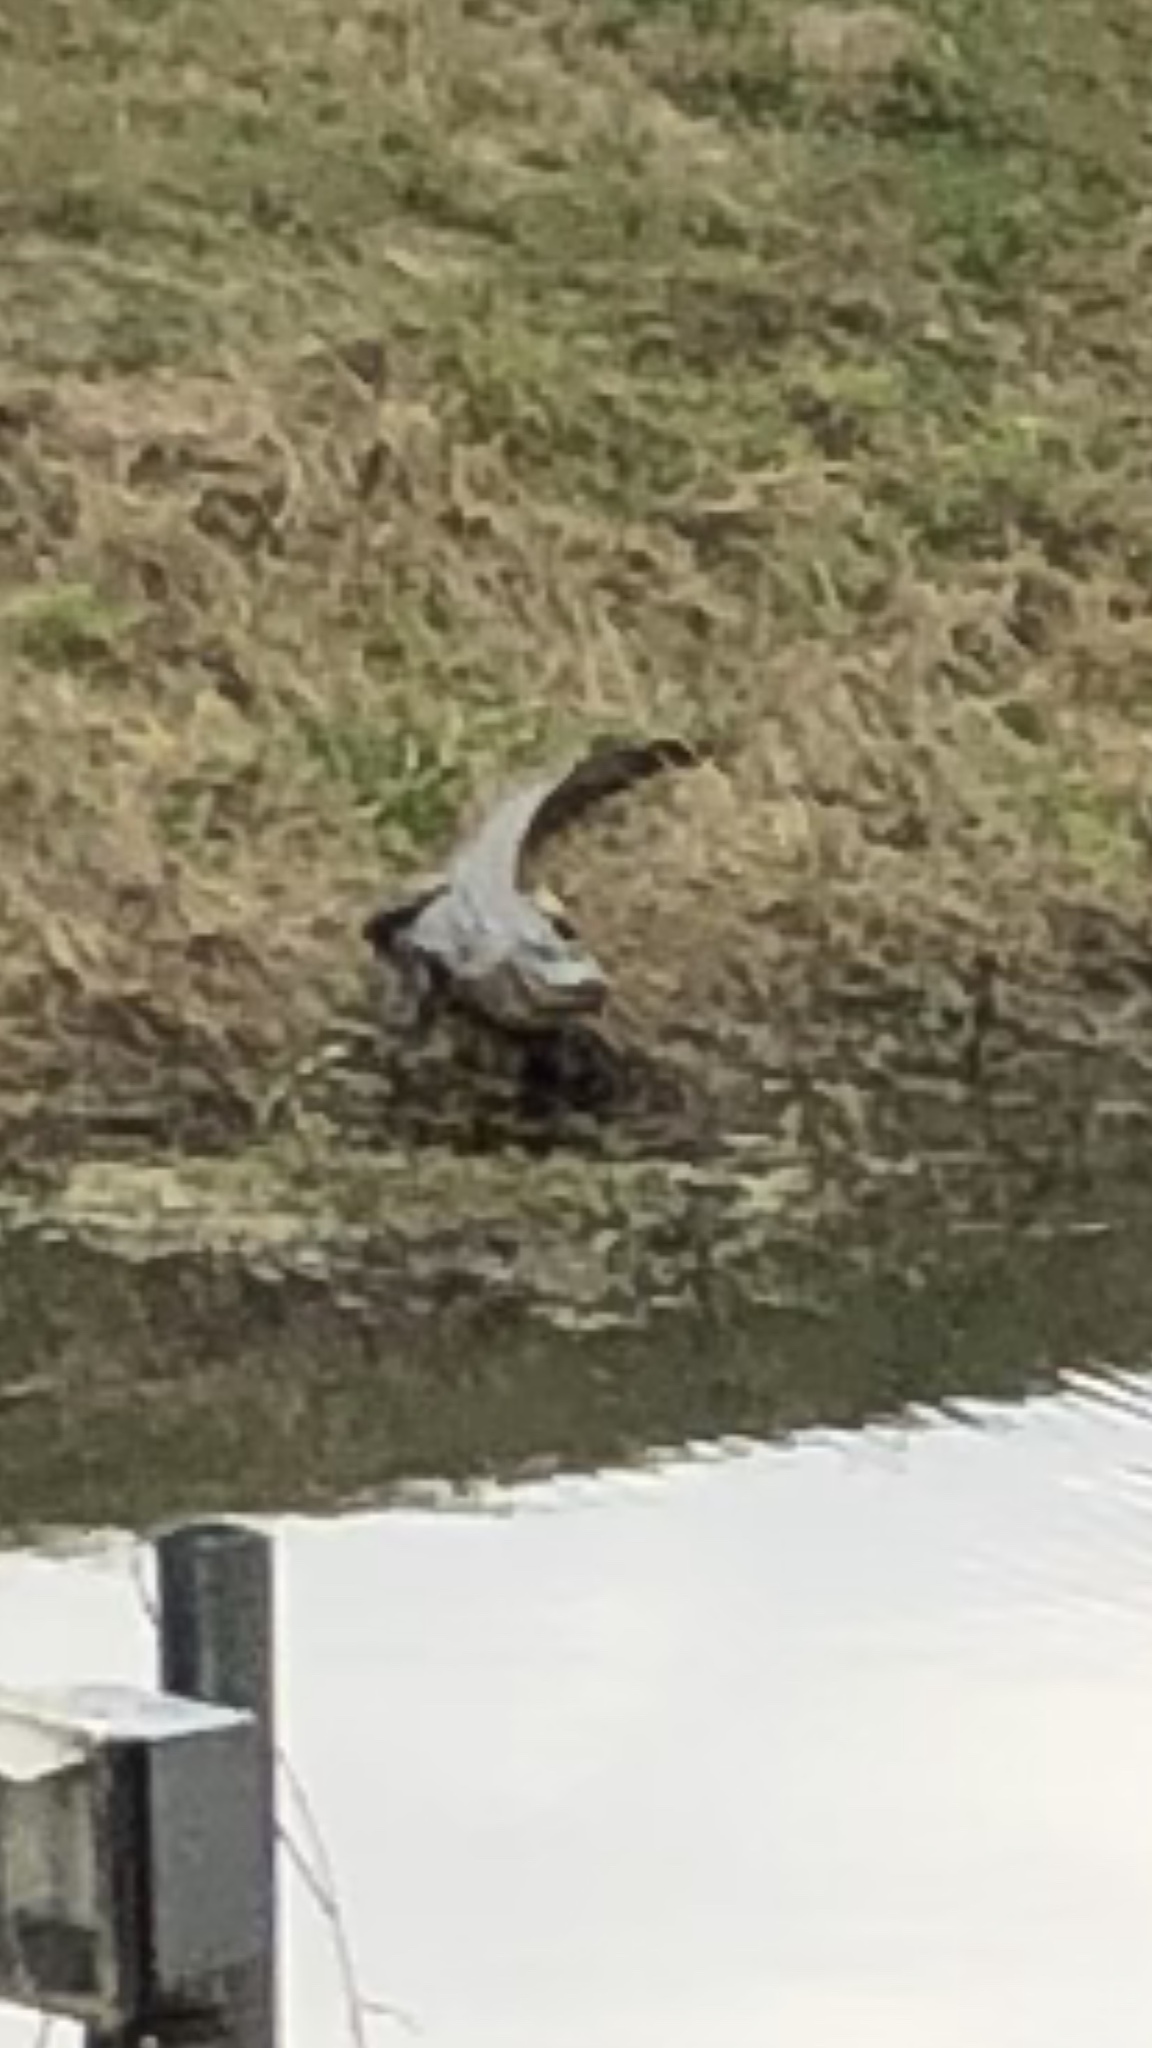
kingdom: Animalia
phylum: Chordata
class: Crocodylia
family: Alligatoridae
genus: Alligator
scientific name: Alligator mississippiensis
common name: American alligator
